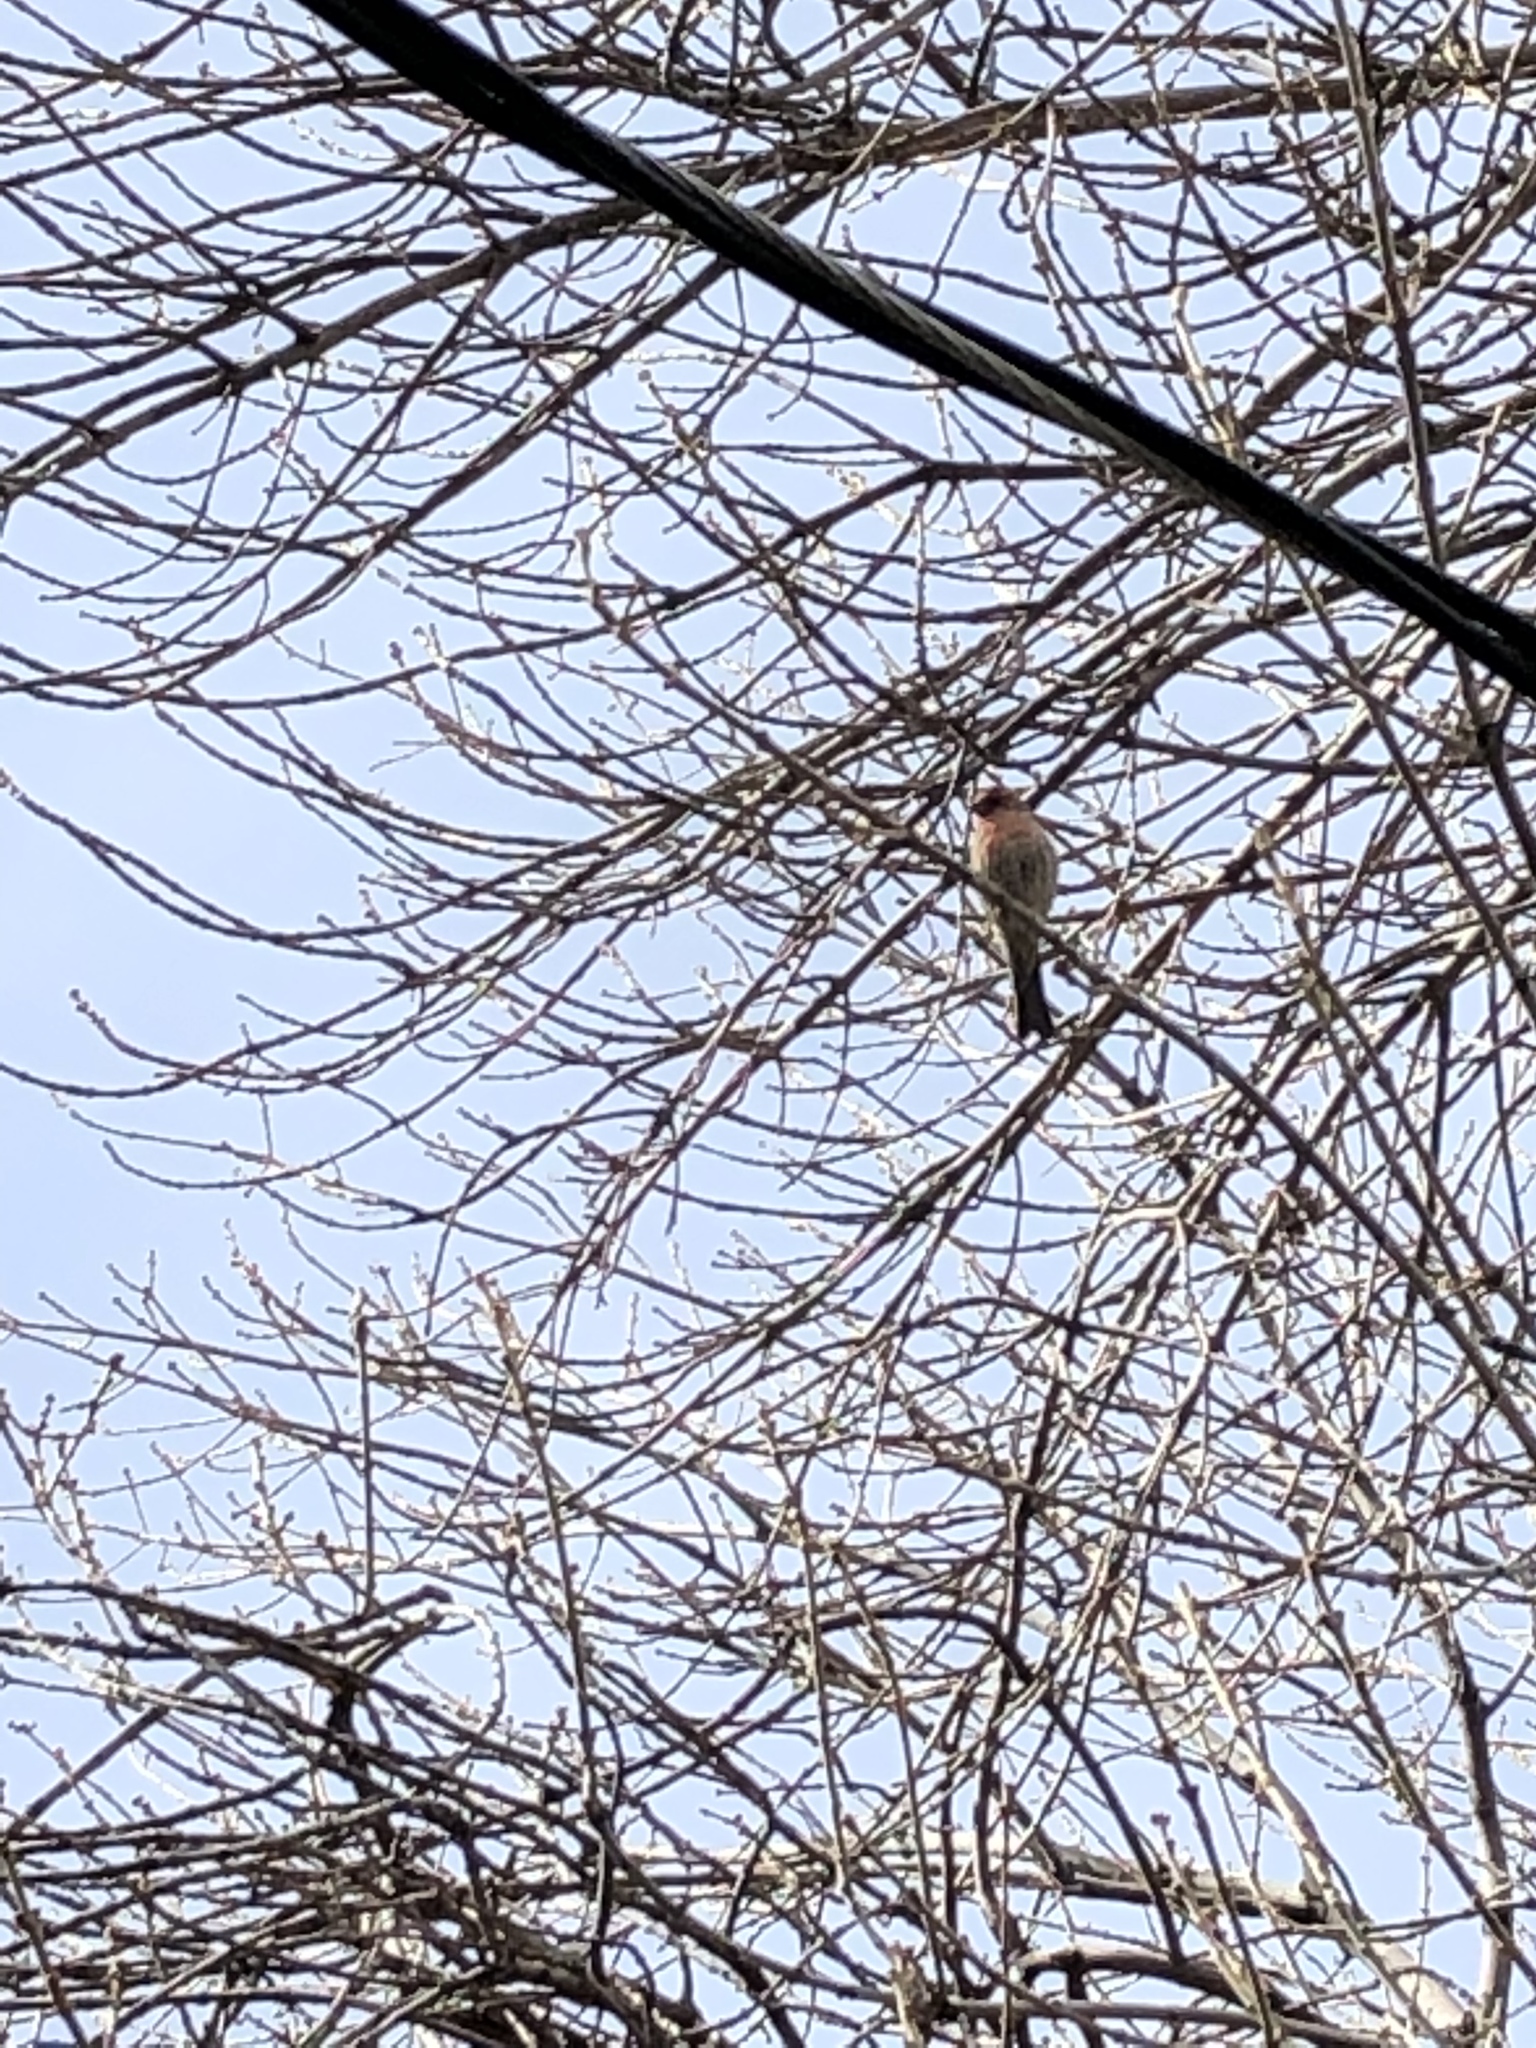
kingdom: Animalia
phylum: Chordata
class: Aves
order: Passeriformes
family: Fringillidae
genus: Haemorhous
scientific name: Haemorhous mexicanus
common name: House finch
